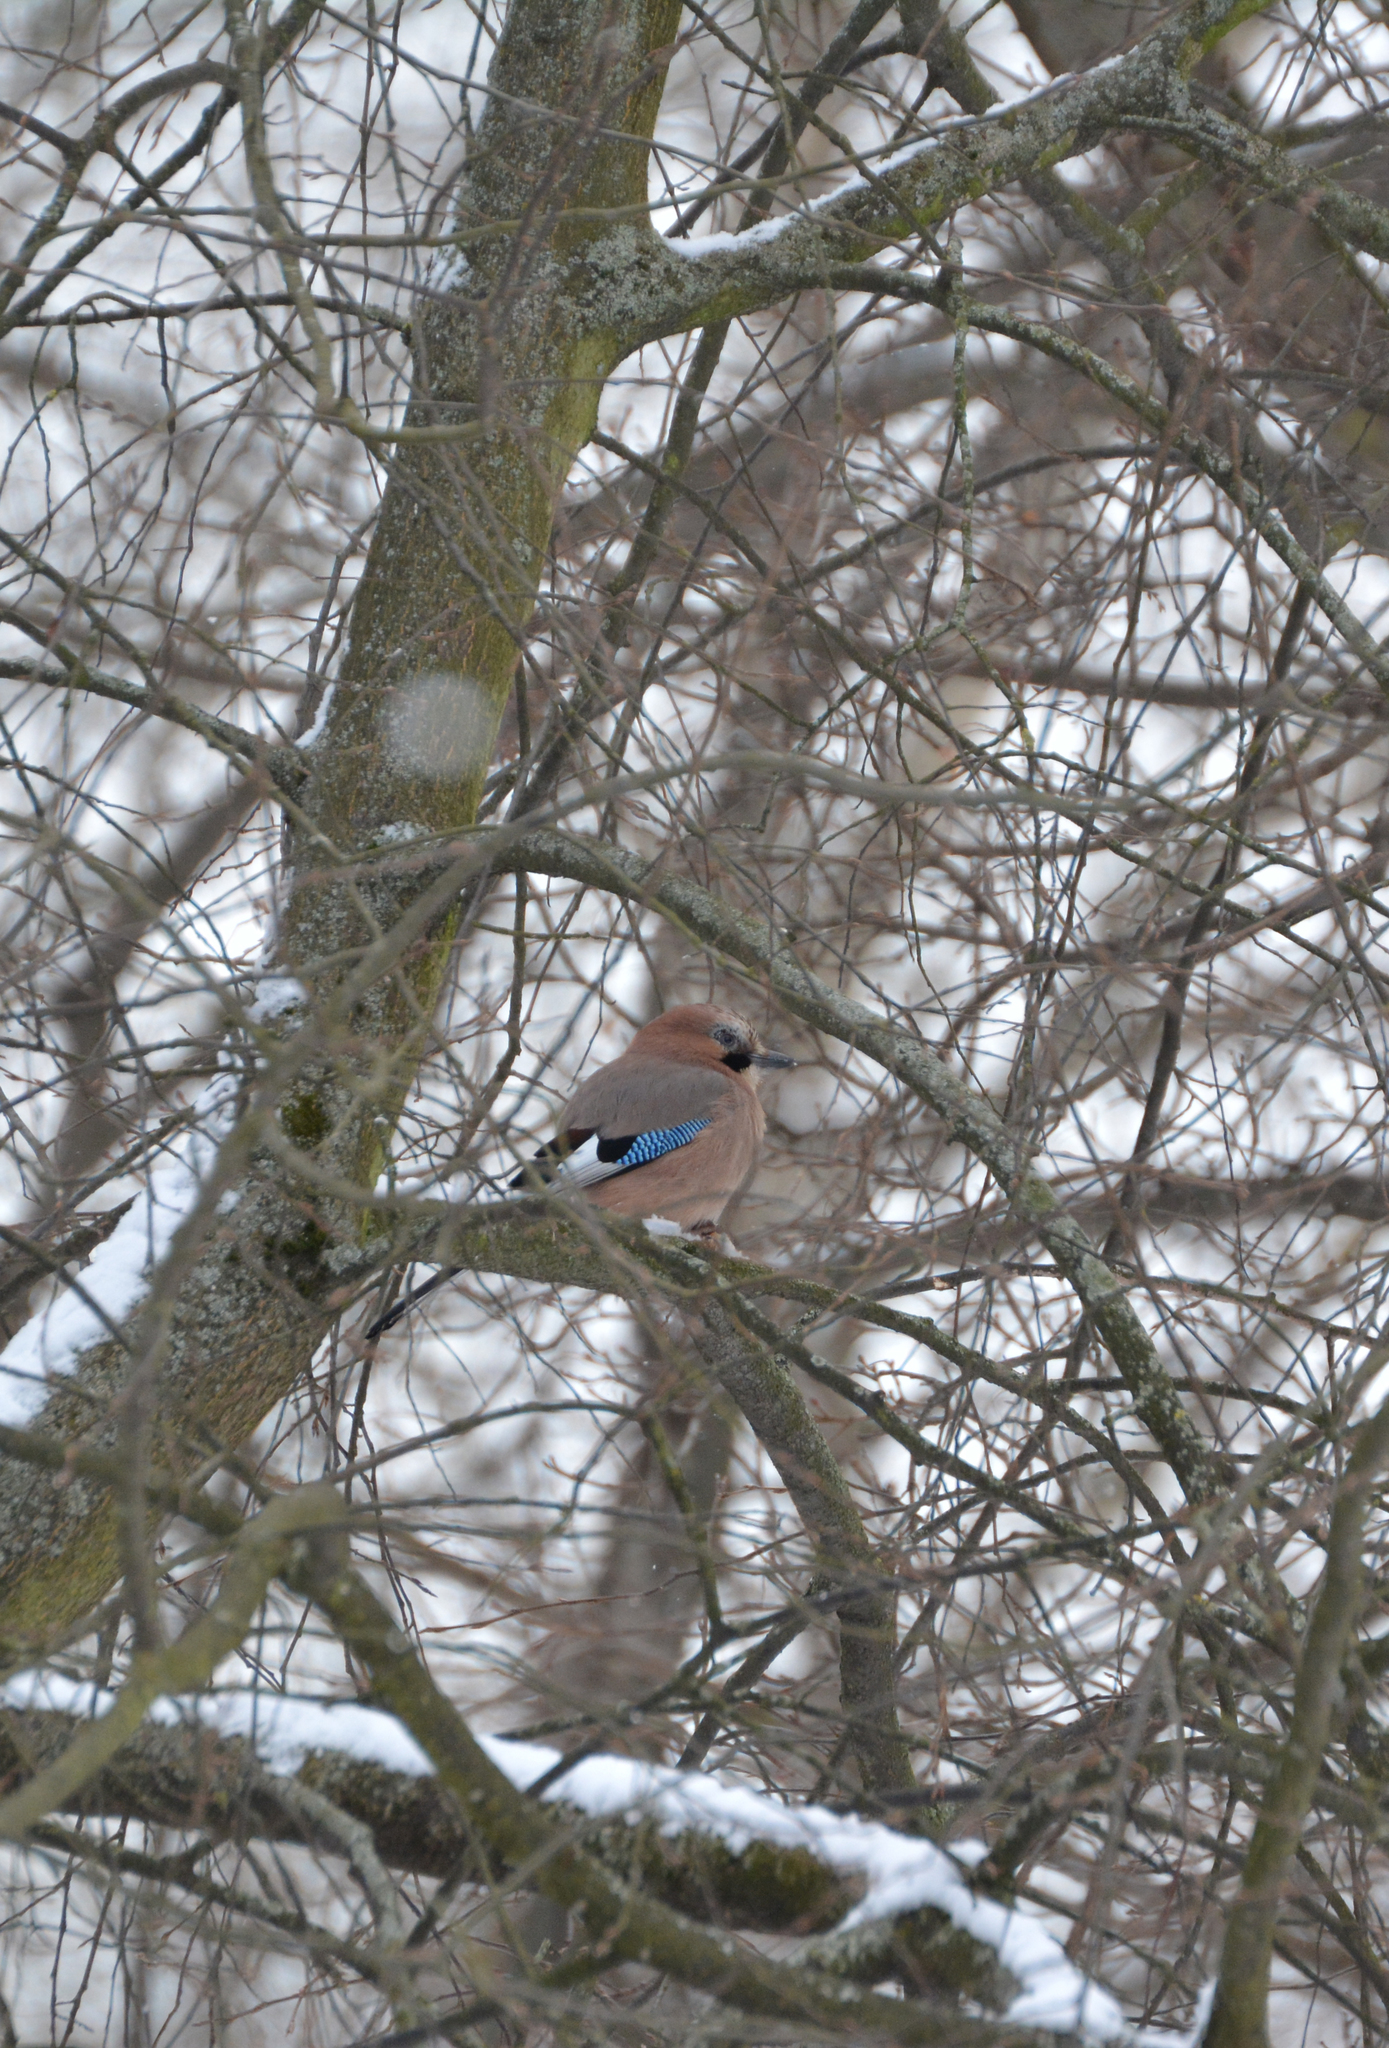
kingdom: Animalia
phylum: Chordata
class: Aves
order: Passeriformes
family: Corvidae
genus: Garrulus
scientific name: Garrulus glandarius
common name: Eurasian jay
